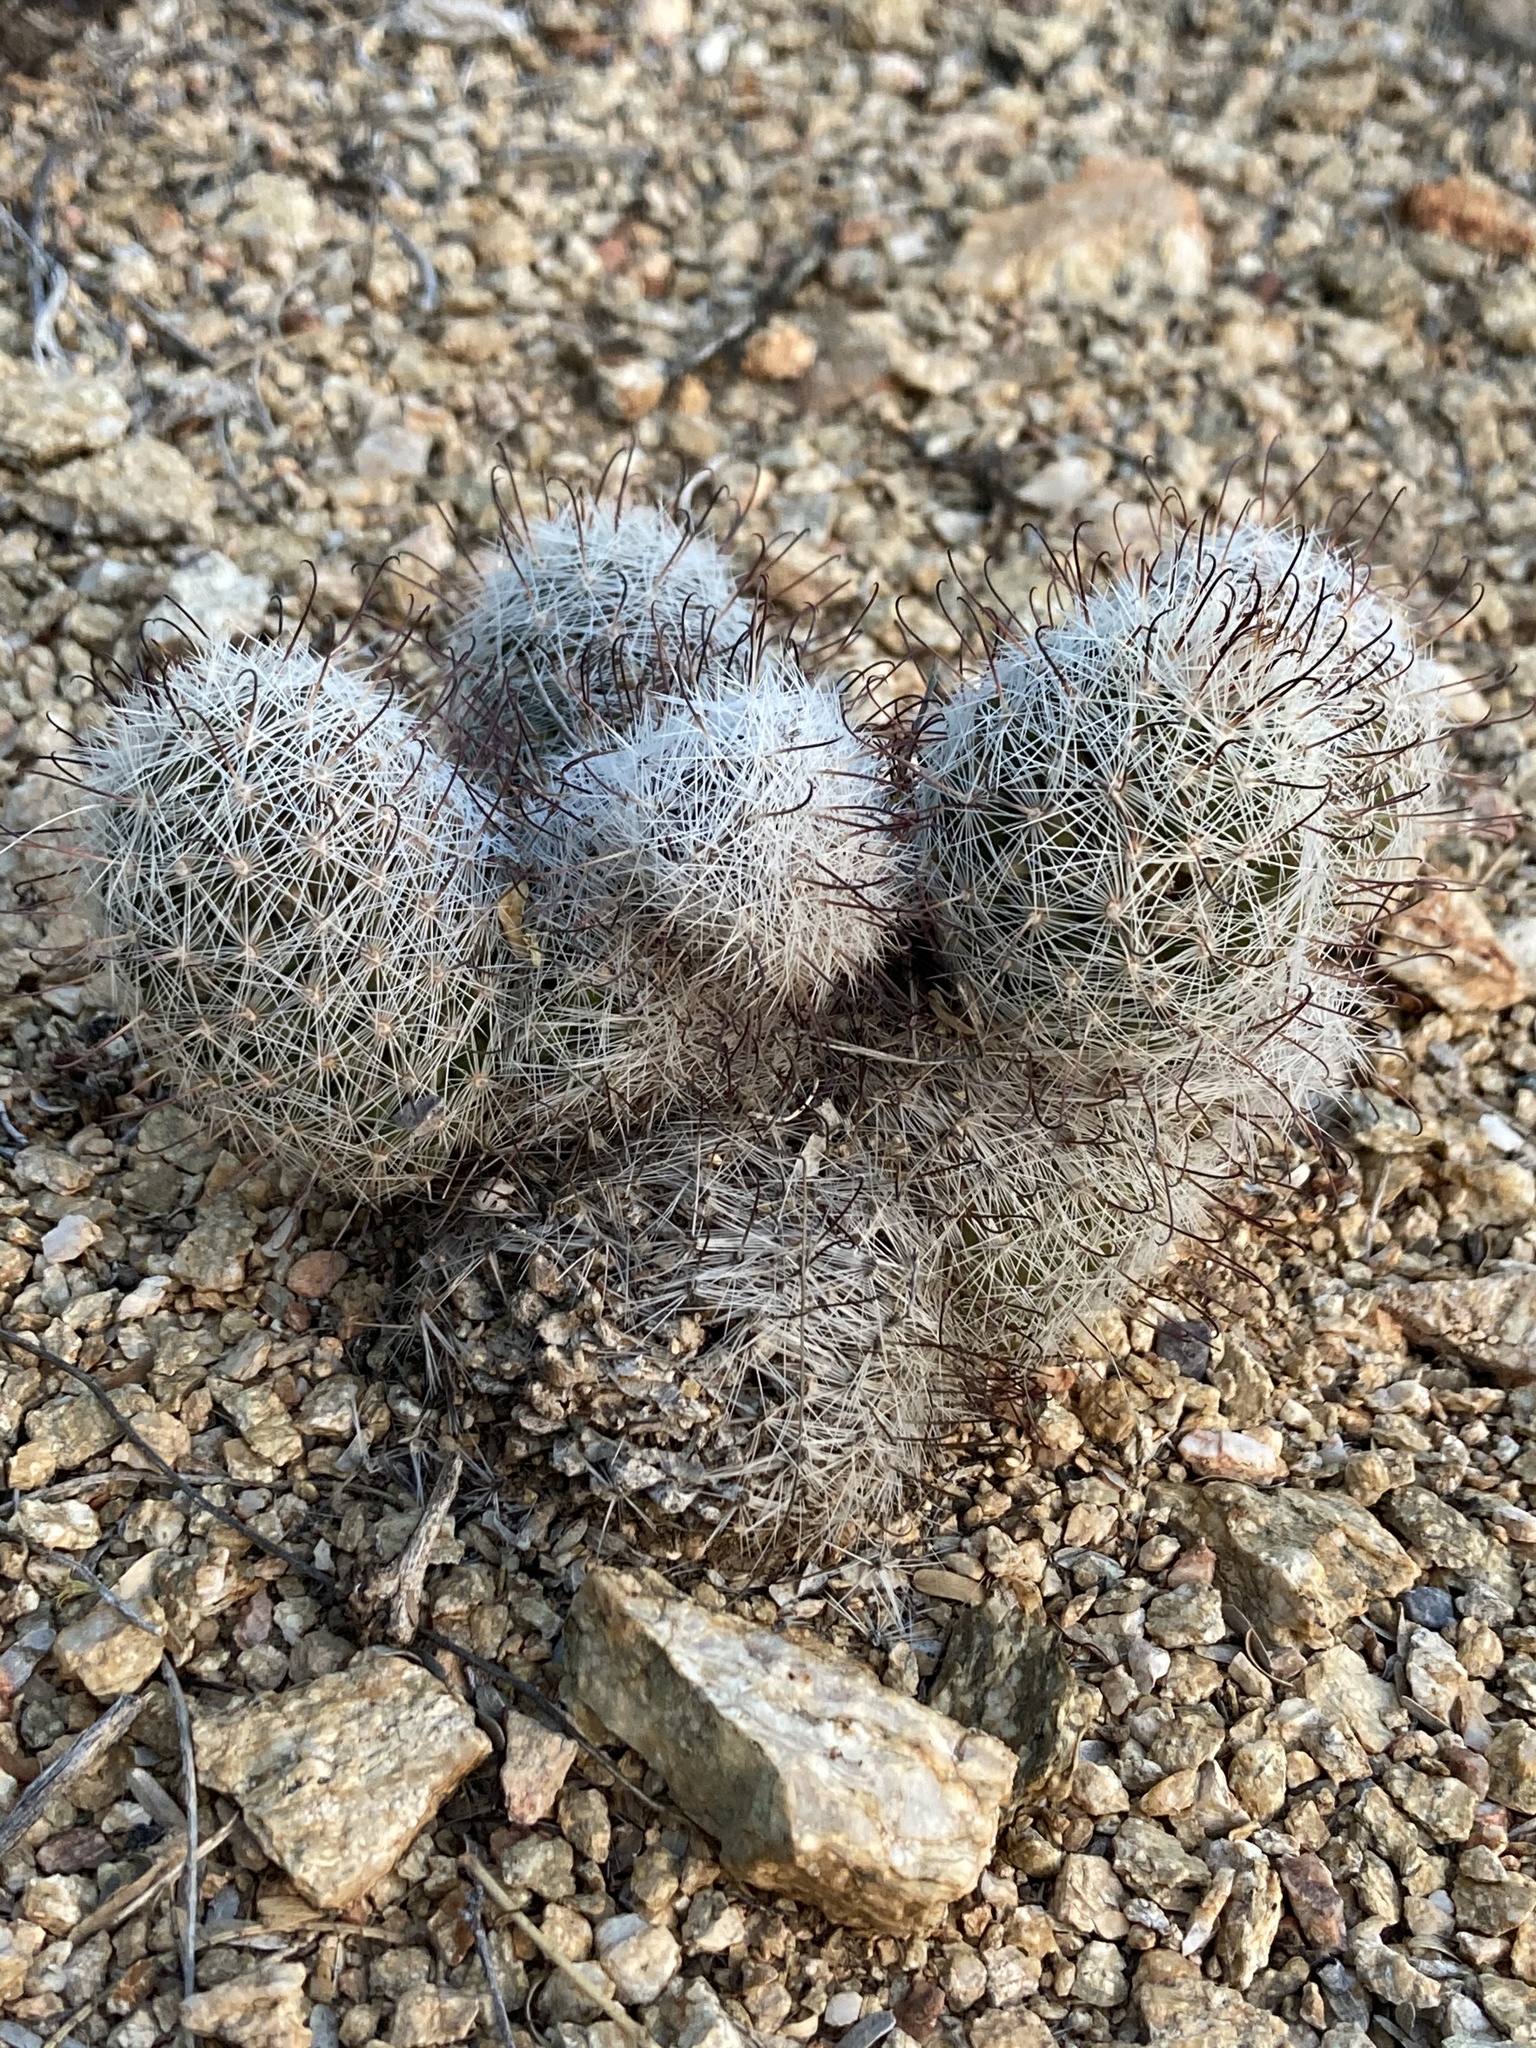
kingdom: Plantae
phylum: Tracheophyta
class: Magnoliopsida
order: Caryophyllales
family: Cactaceae
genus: Cochemiea
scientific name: Cochemiea grahamii
